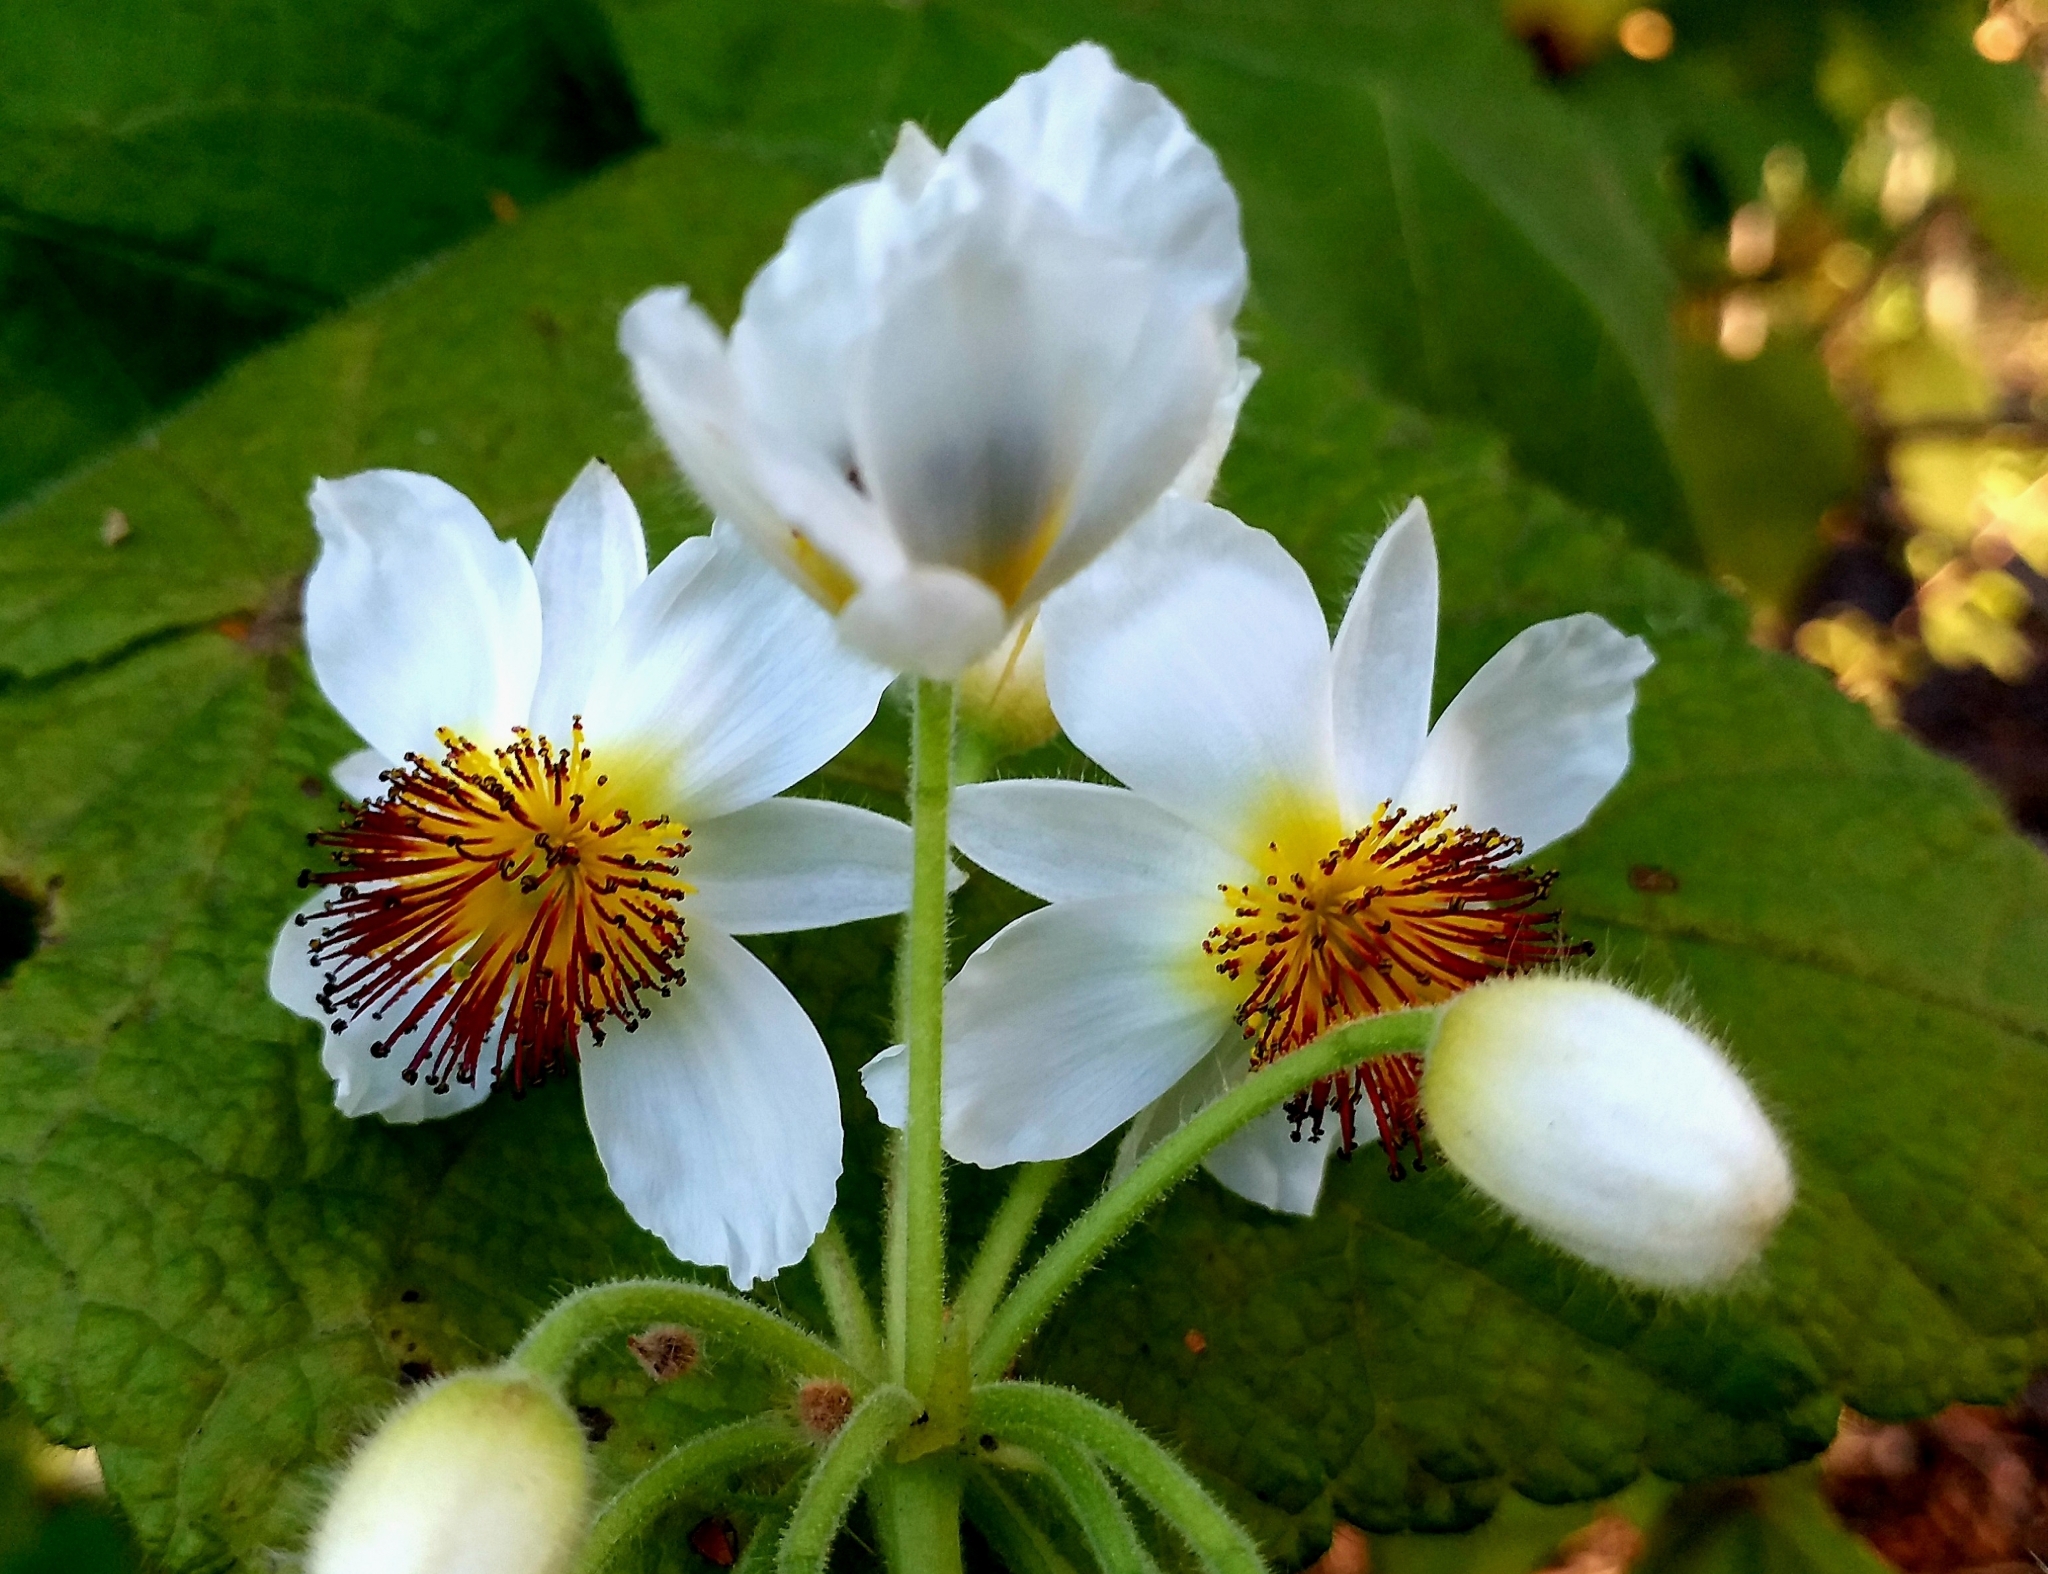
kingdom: Plantae
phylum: Tracheophyta
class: Magnoliopsida
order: Malvales
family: Malvaceae
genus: Sparrmannia
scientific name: Sparrmannia africana
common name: African-hemp
